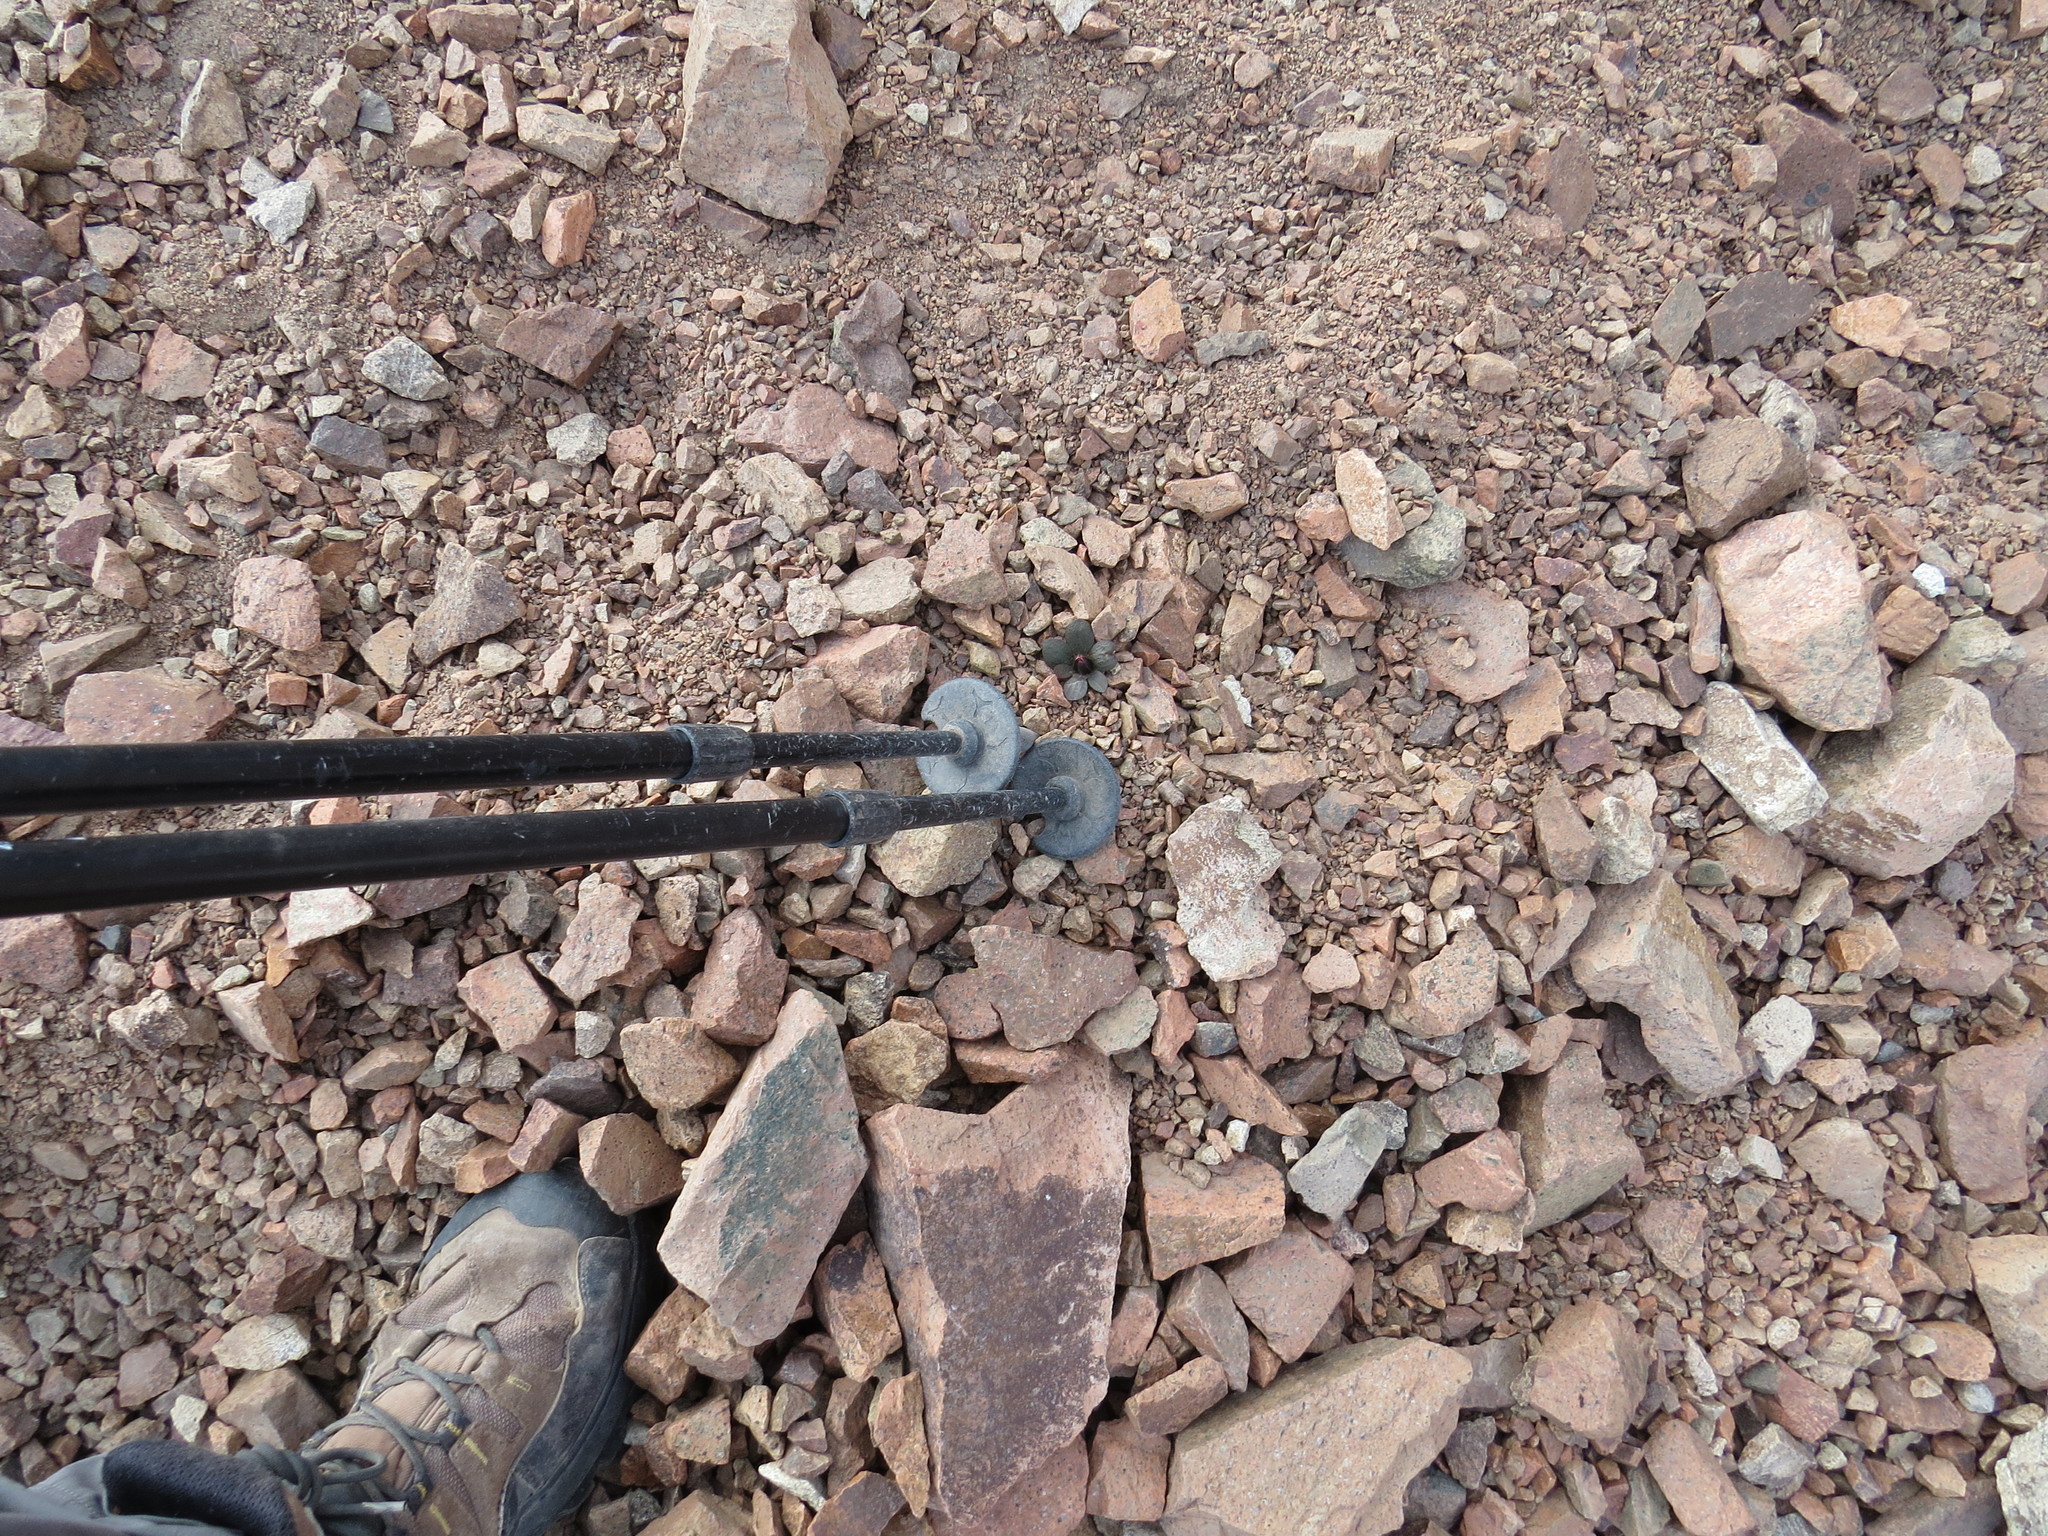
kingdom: Plantae
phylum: Tracheophyta
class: Magnoliopsida
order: Ranunculales
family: Ranunculaceae
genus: Knowltonia
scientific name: Knowltonia balliana
